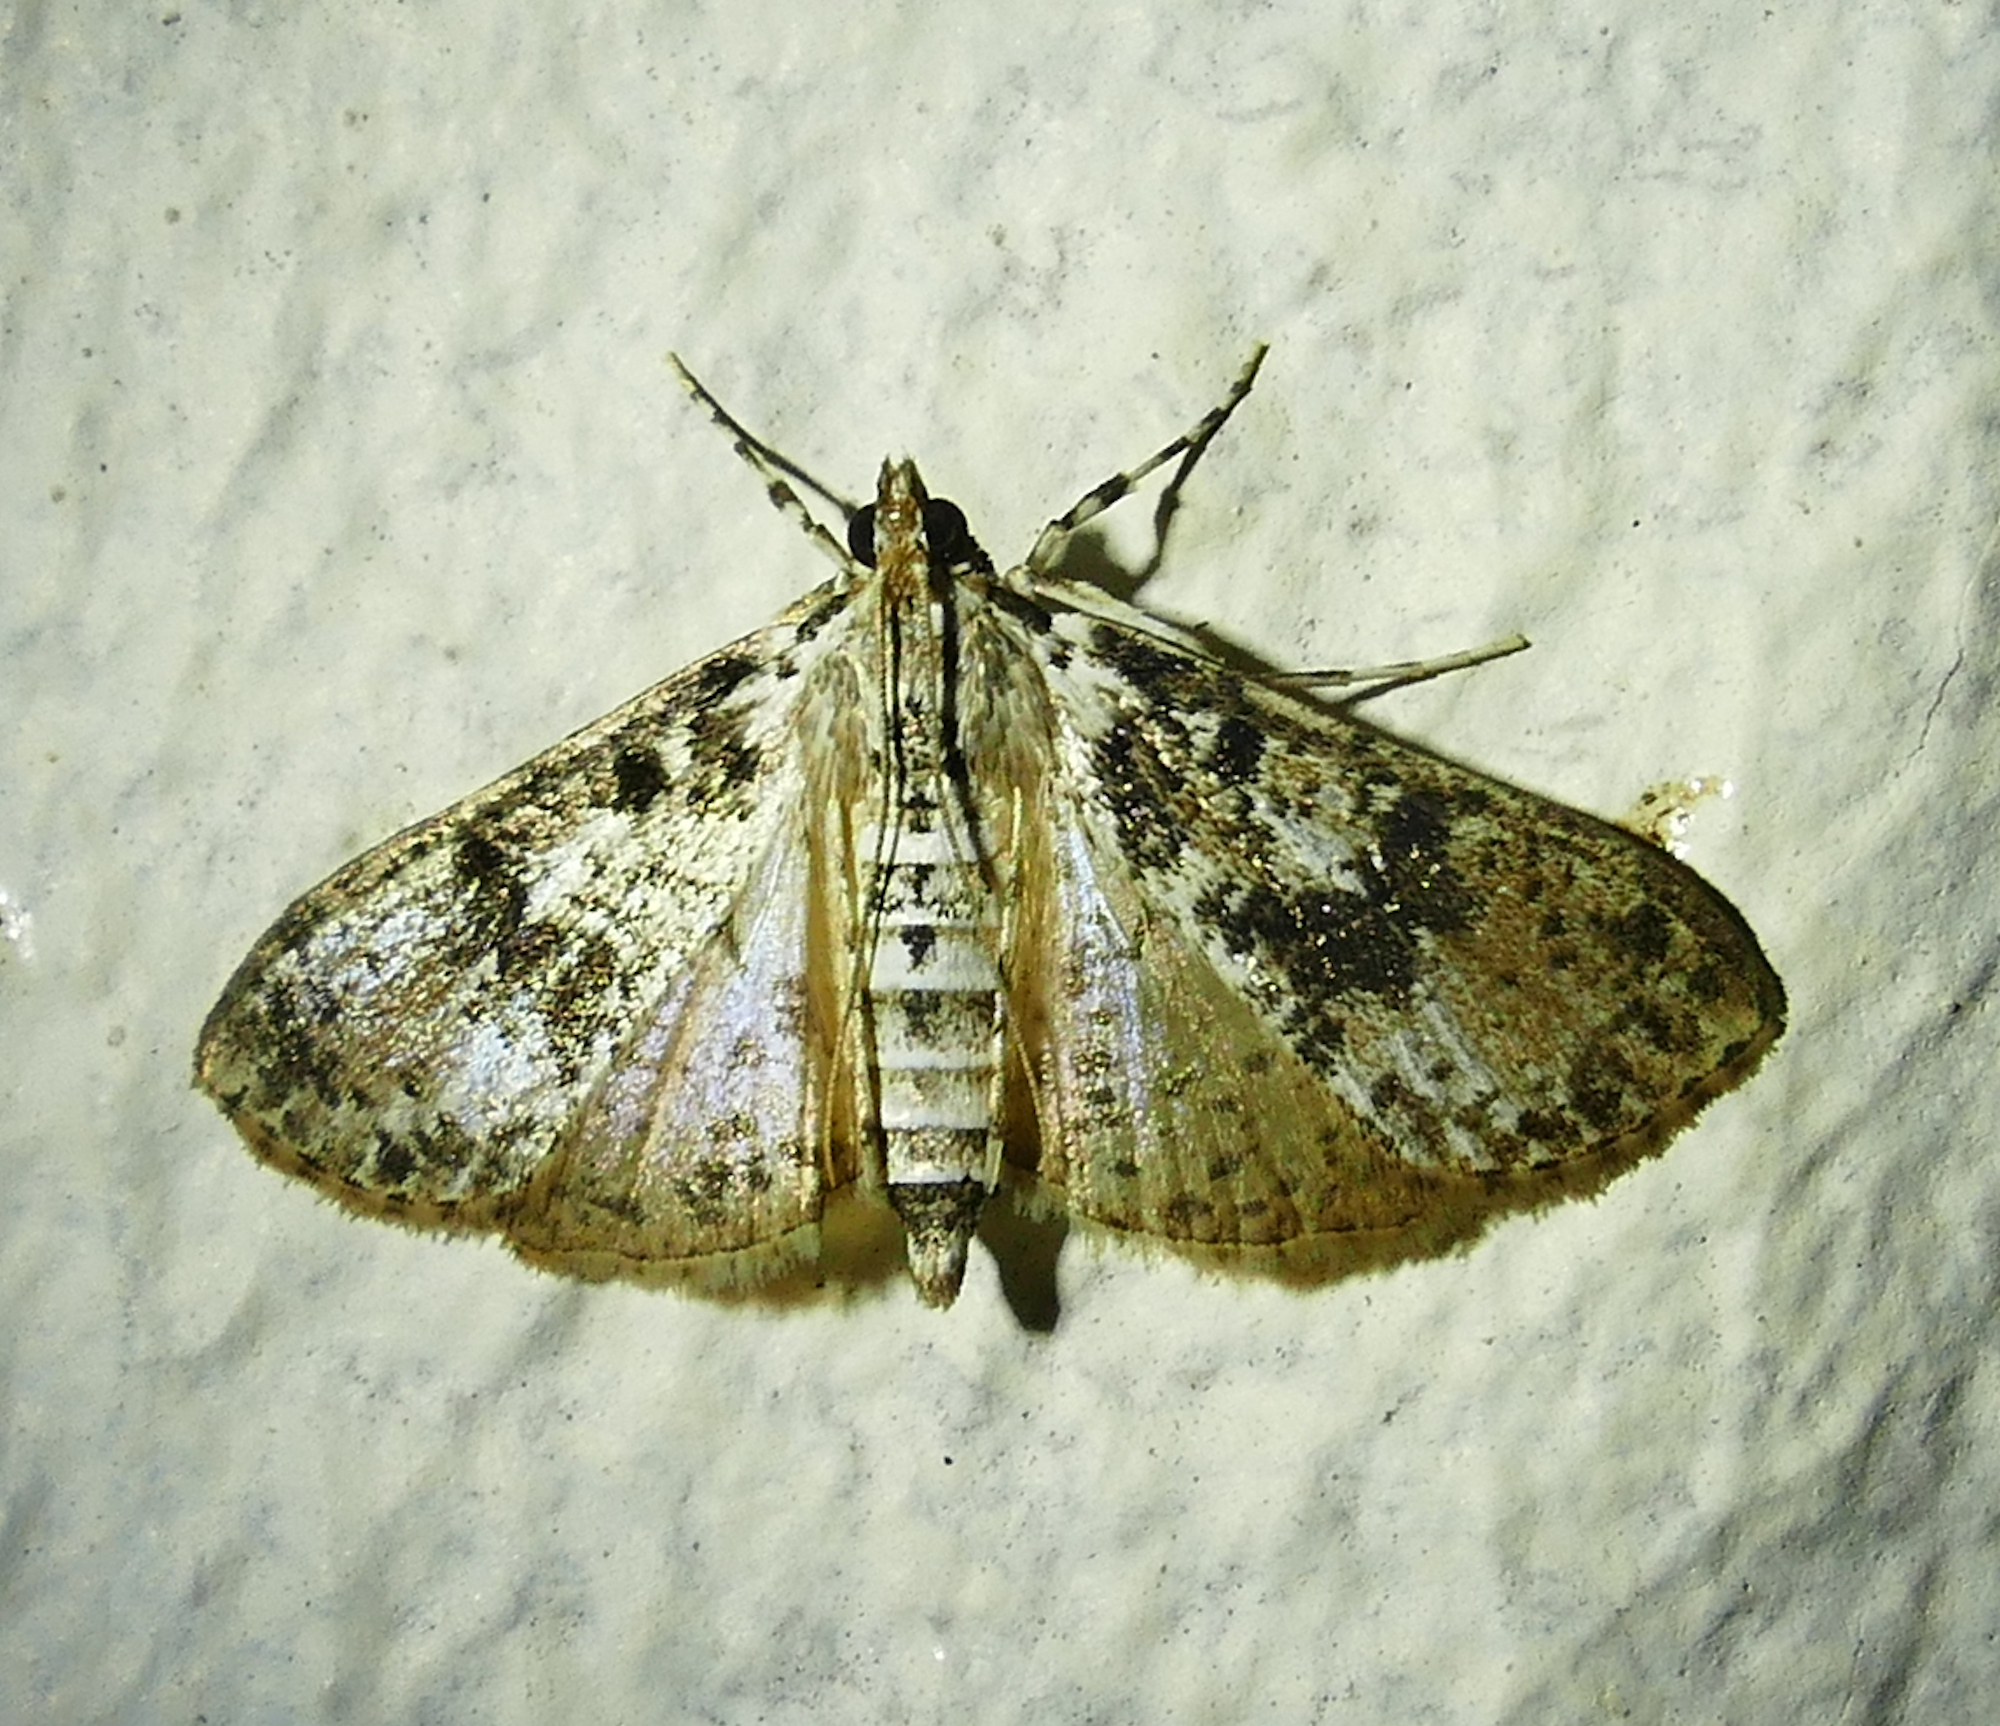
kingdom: Animalia
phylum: Arthropoda
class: Insecta
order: Lepidoptera
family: Crambidae
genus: Palpita
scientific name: Palpita magniferalis
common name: Splendid palpita moth
